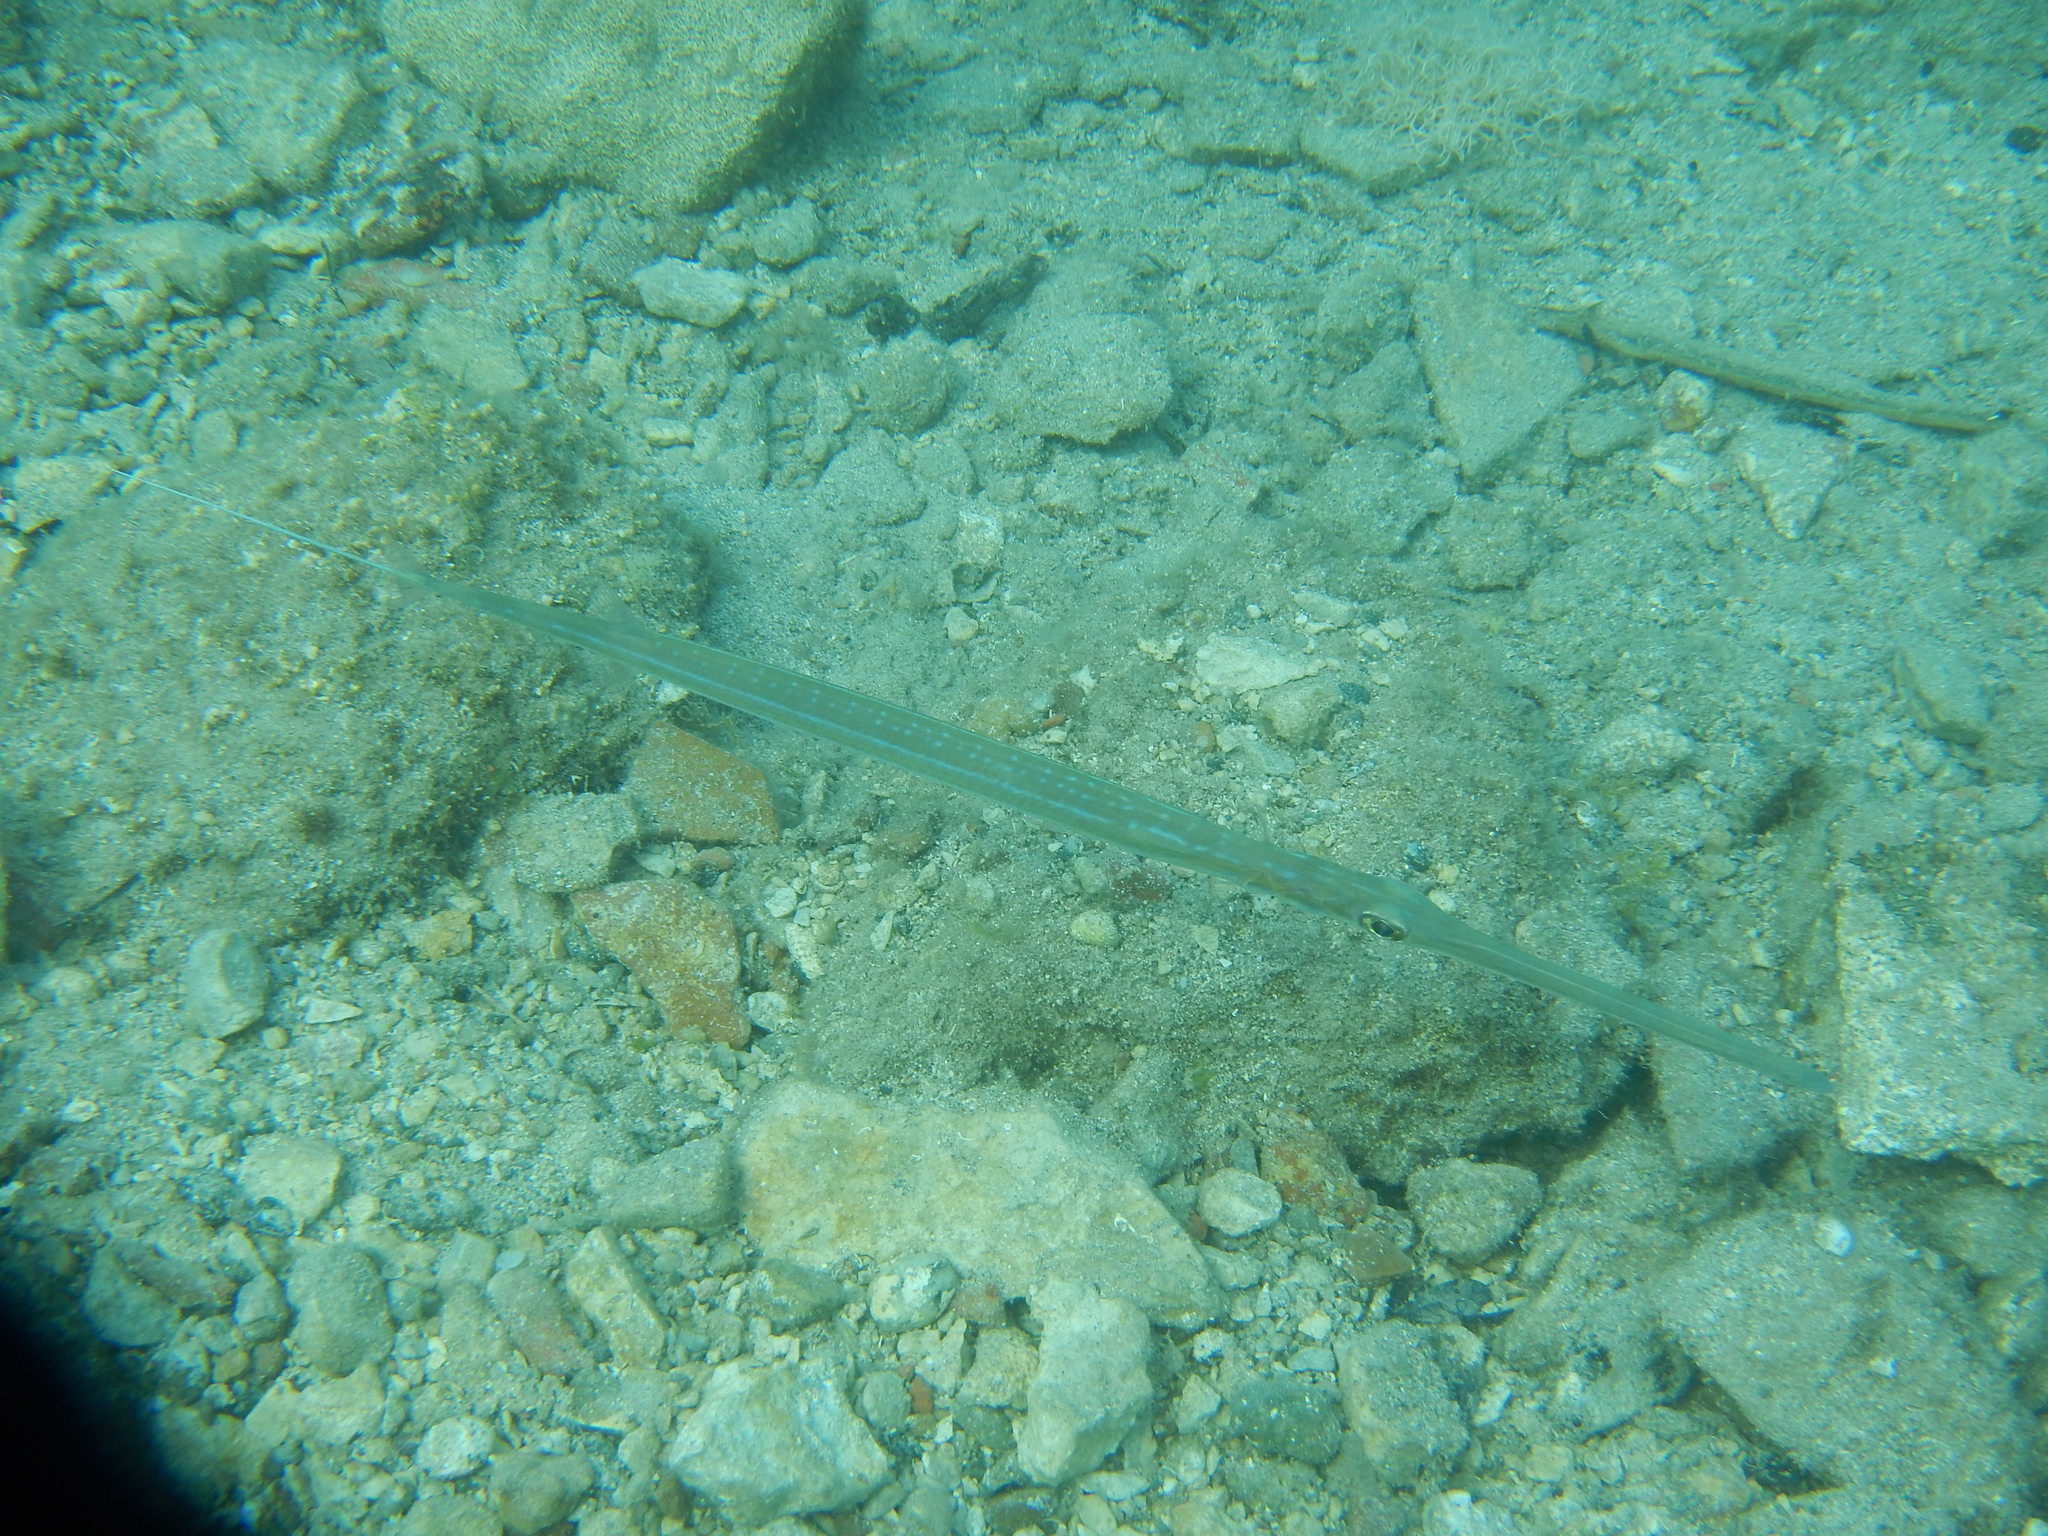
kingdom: Animalia
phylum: Chordata
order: Syngnathiformes
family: Fistulariidae
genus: Fistularia
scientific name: Fistularia commersonii
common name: Bluespotted cornetfish
